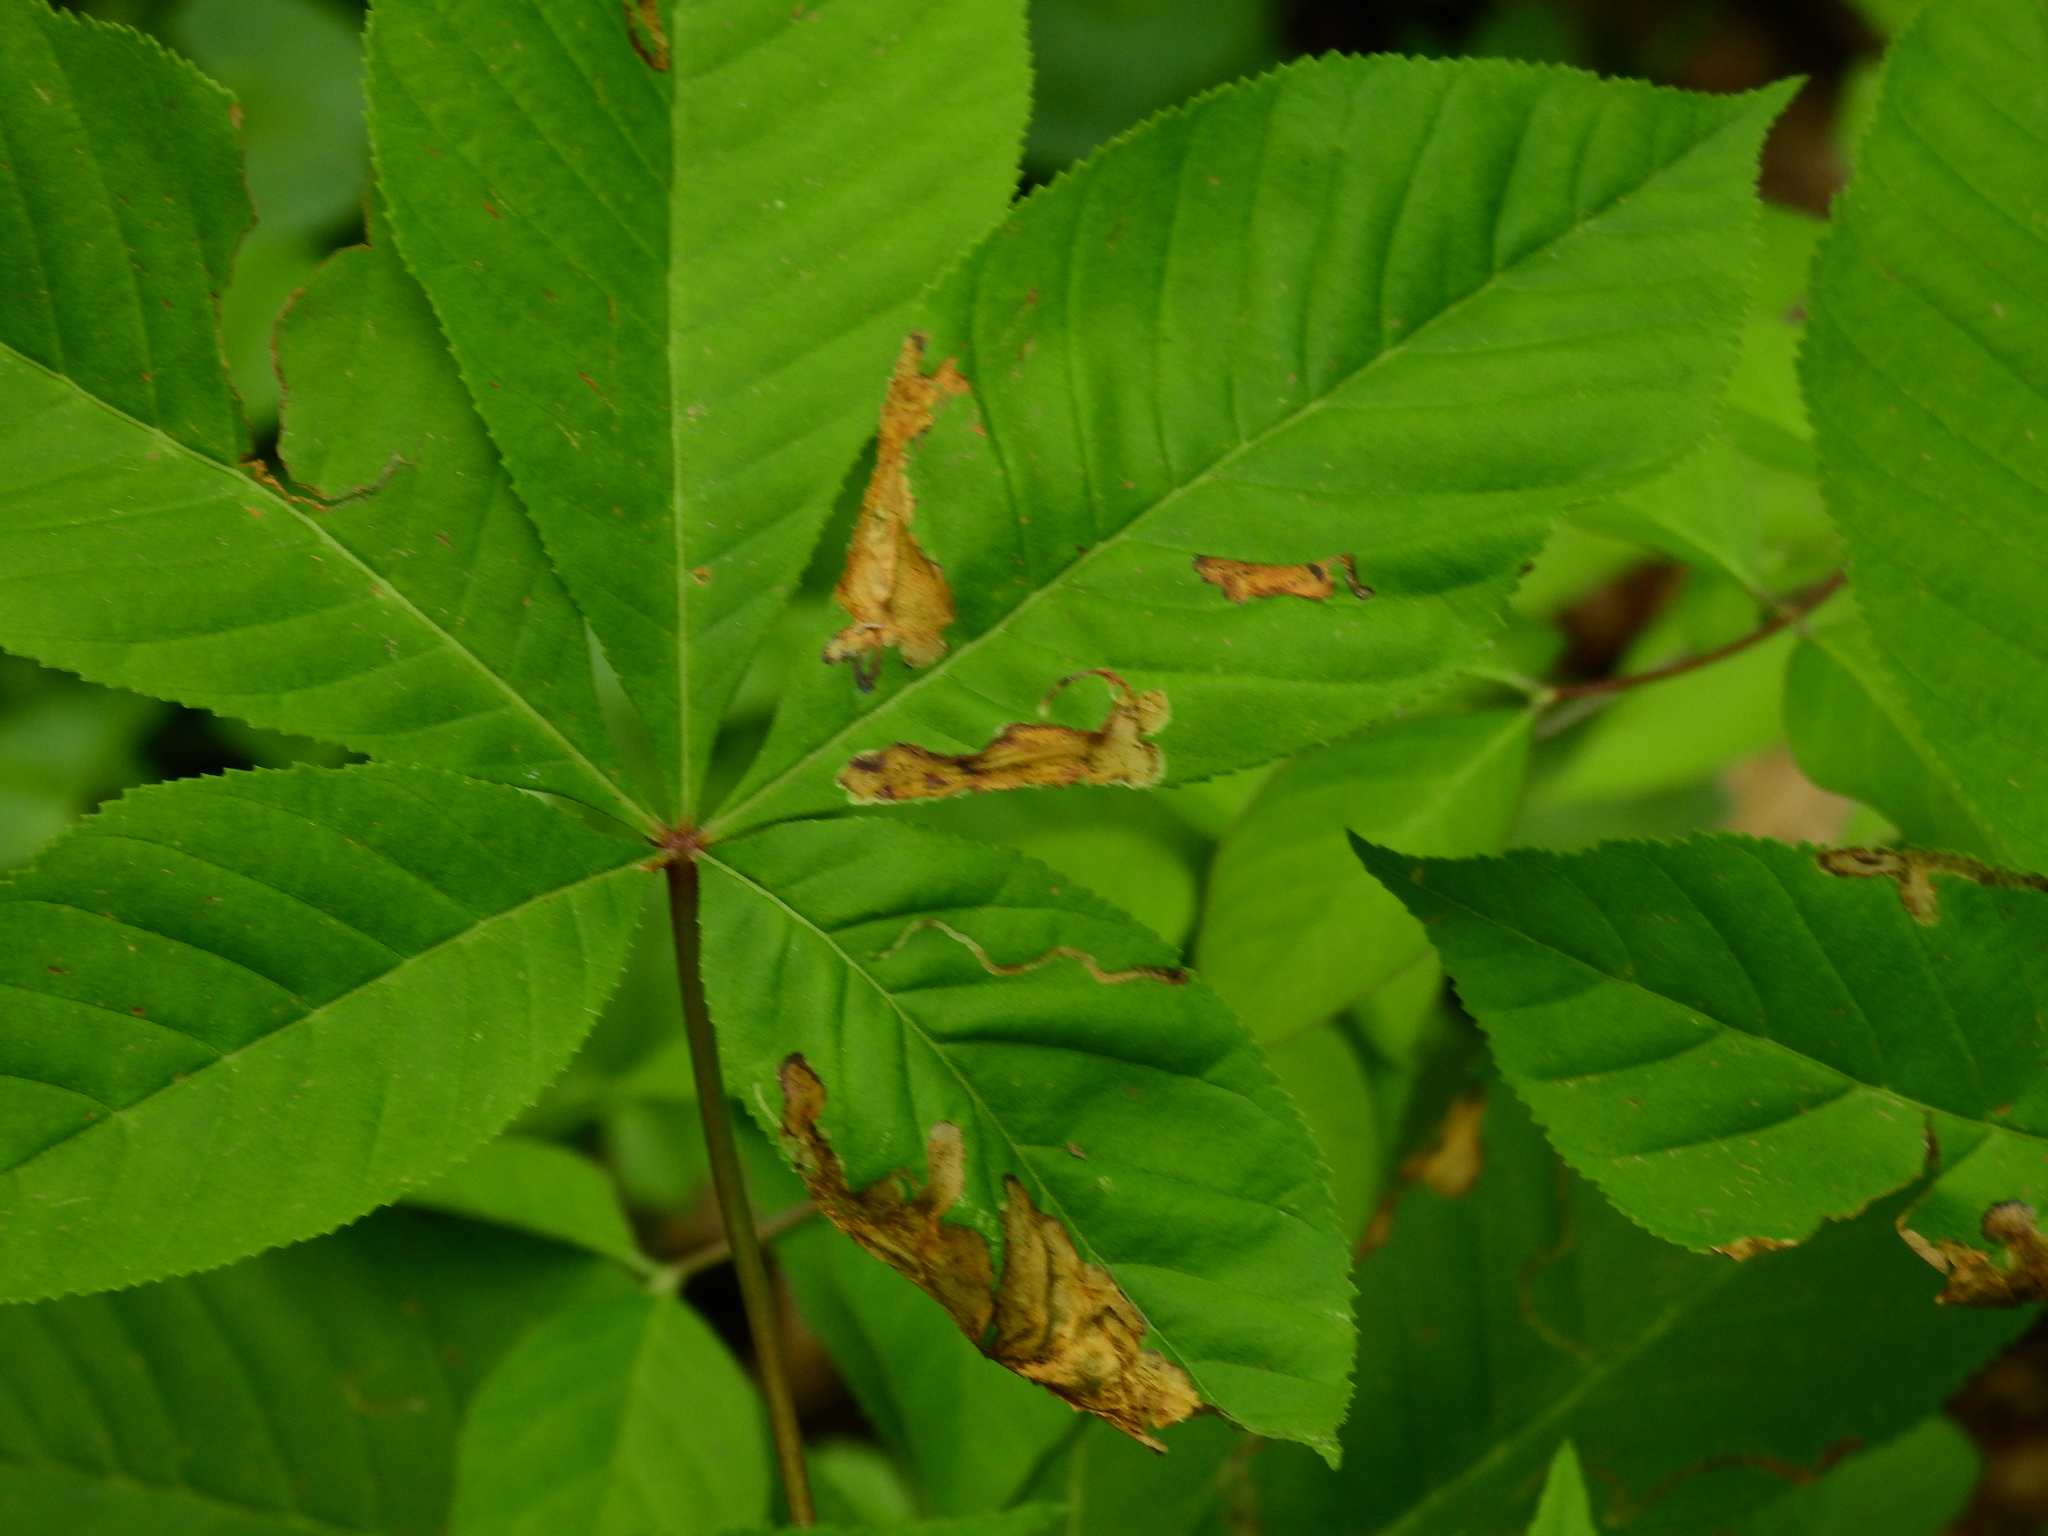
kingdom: Animalia
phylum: Arthropoda
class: Insecta
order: Diptera
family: Agromyzidae
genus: Phytomyza
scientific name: Phytomyza aesculi
